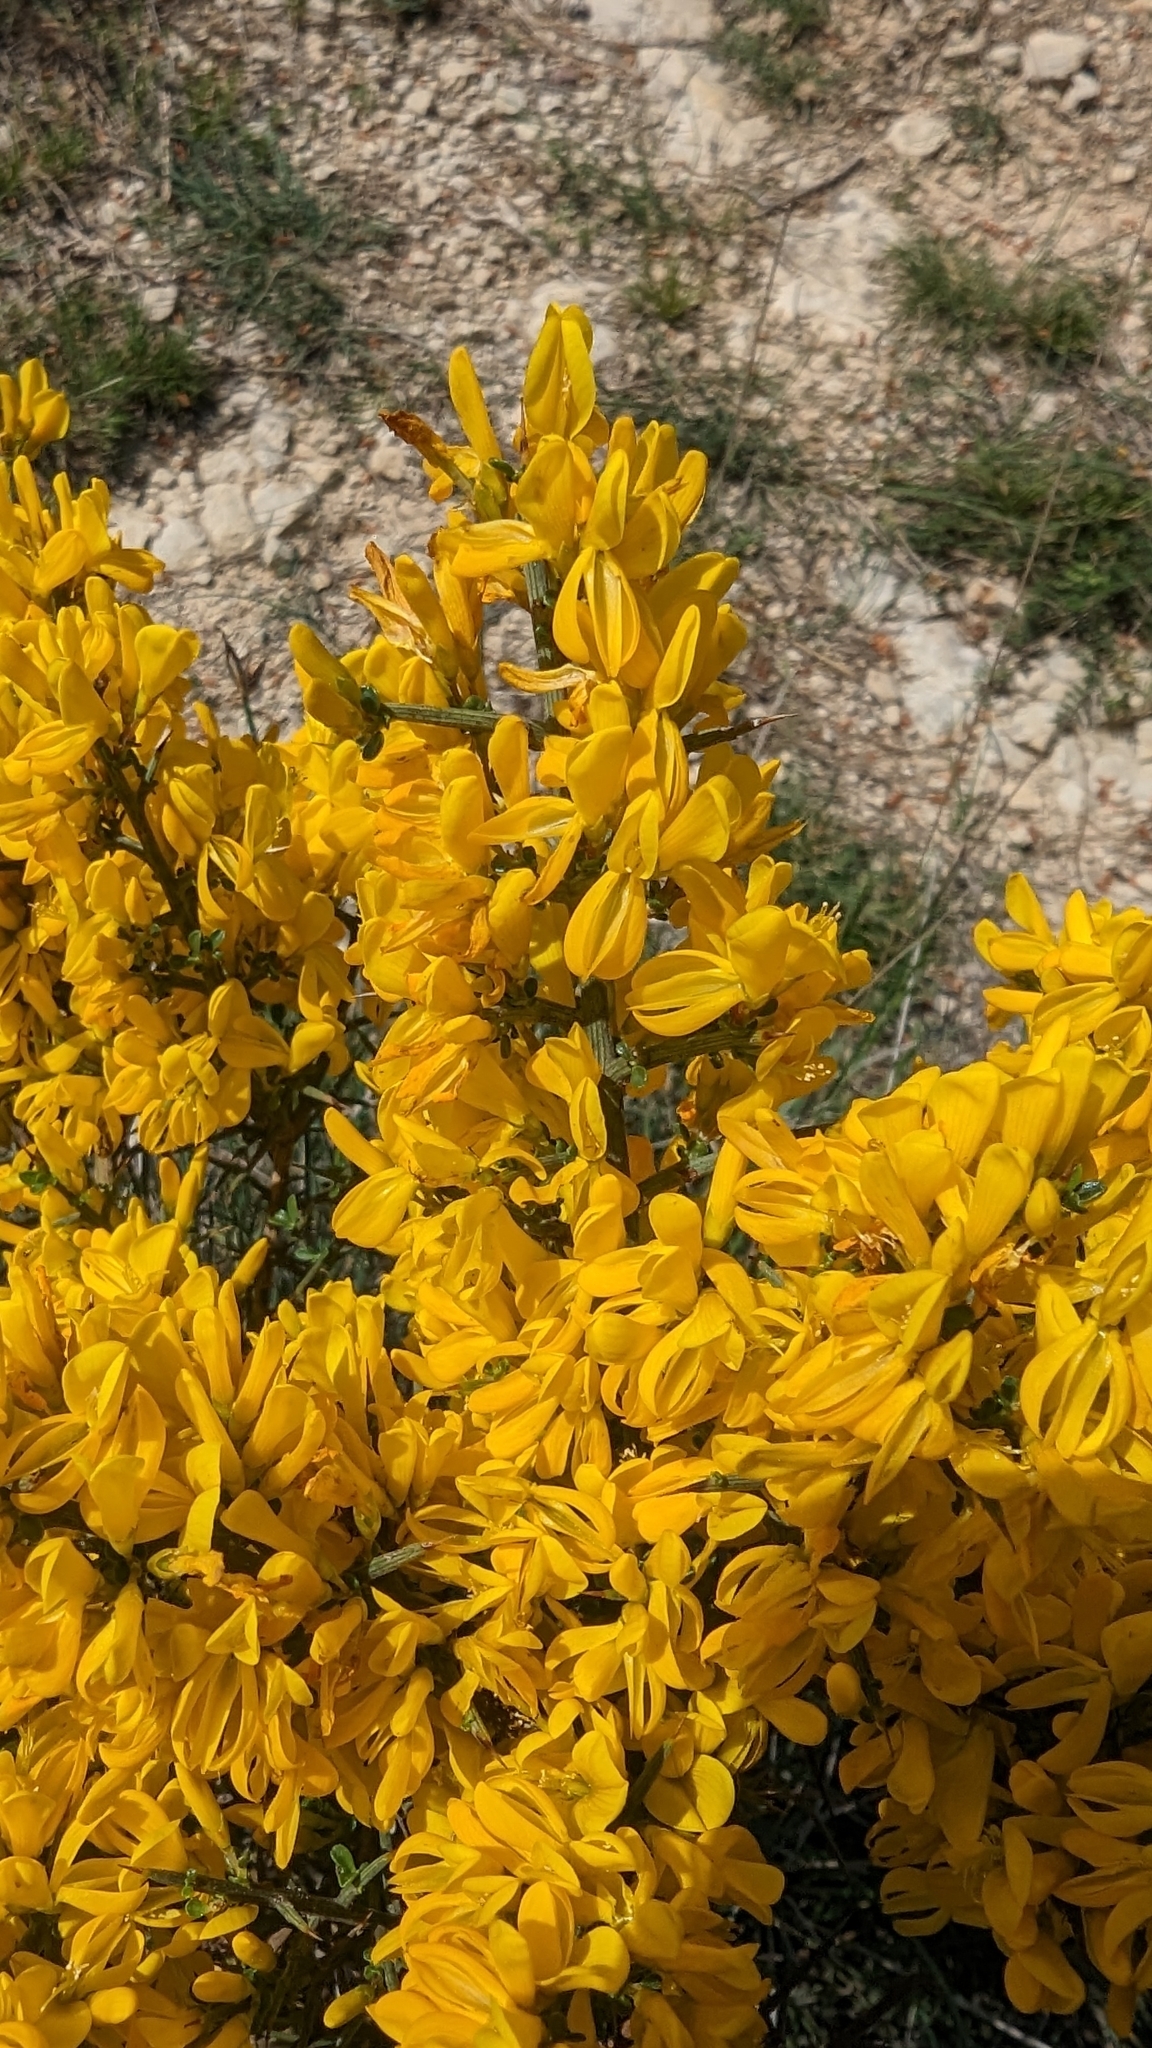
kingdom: Plantae
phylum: Tracheophyta
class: Magnoliopsida
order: Fabales
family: Fabaceae
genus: Genista
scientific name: Genista scorpius
